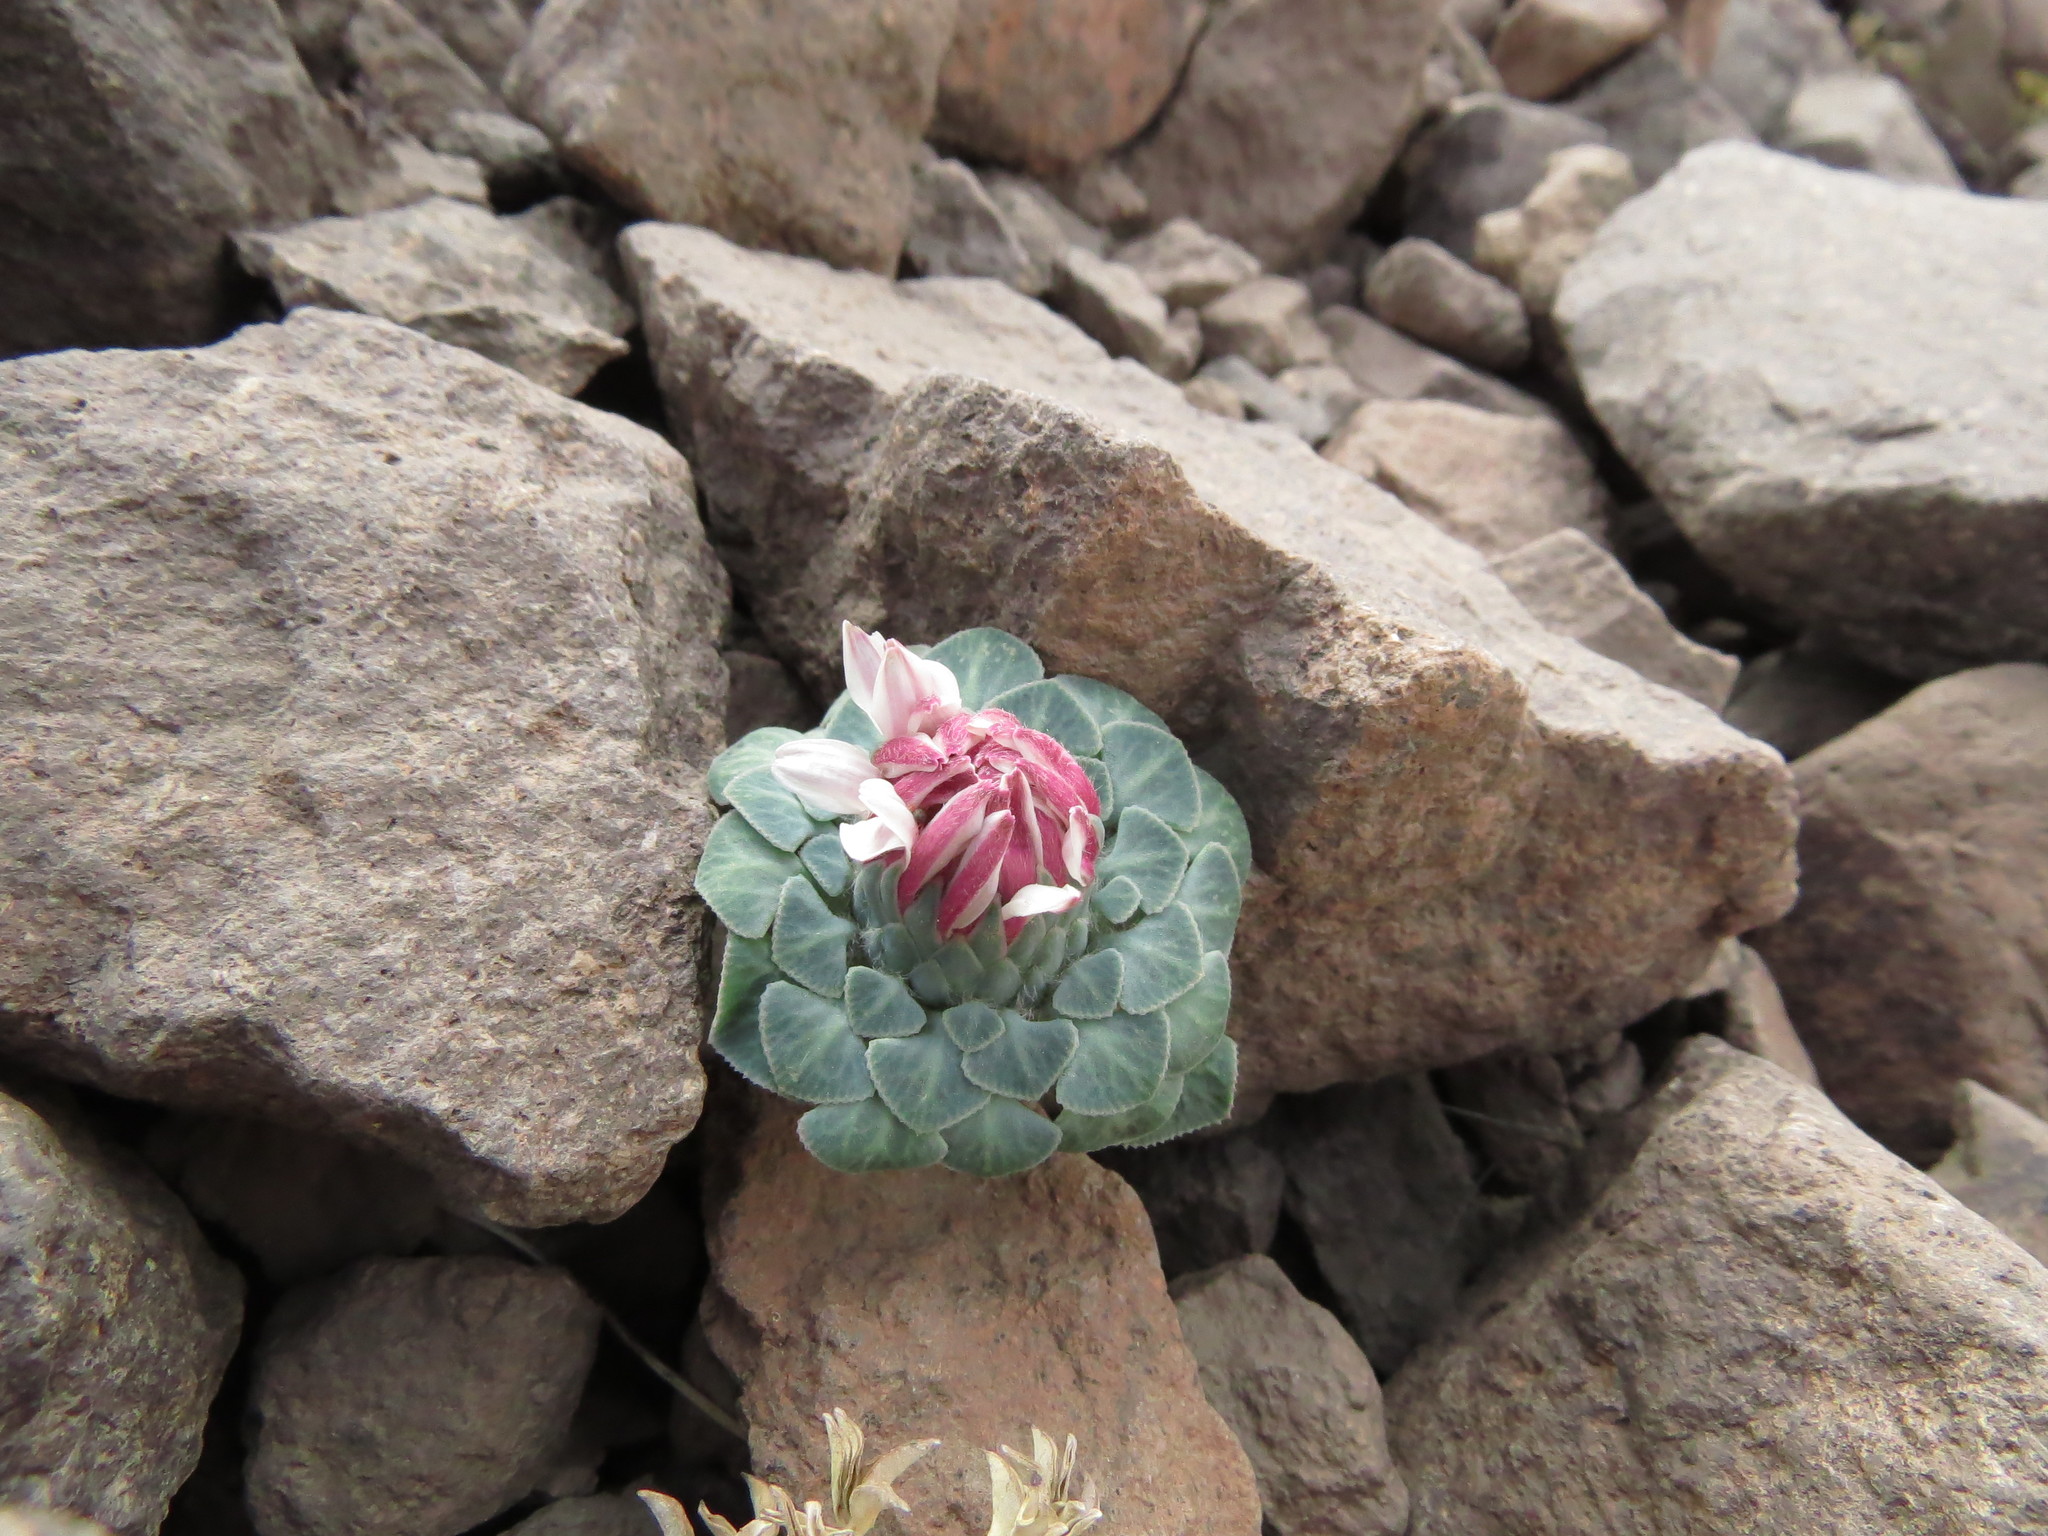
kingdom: Plantae
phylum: Tracheophyta
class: Magnoliopsida
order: Asterales
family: Asteraceae
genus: Chaetanthera
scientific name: Chaetanthera renifolia
